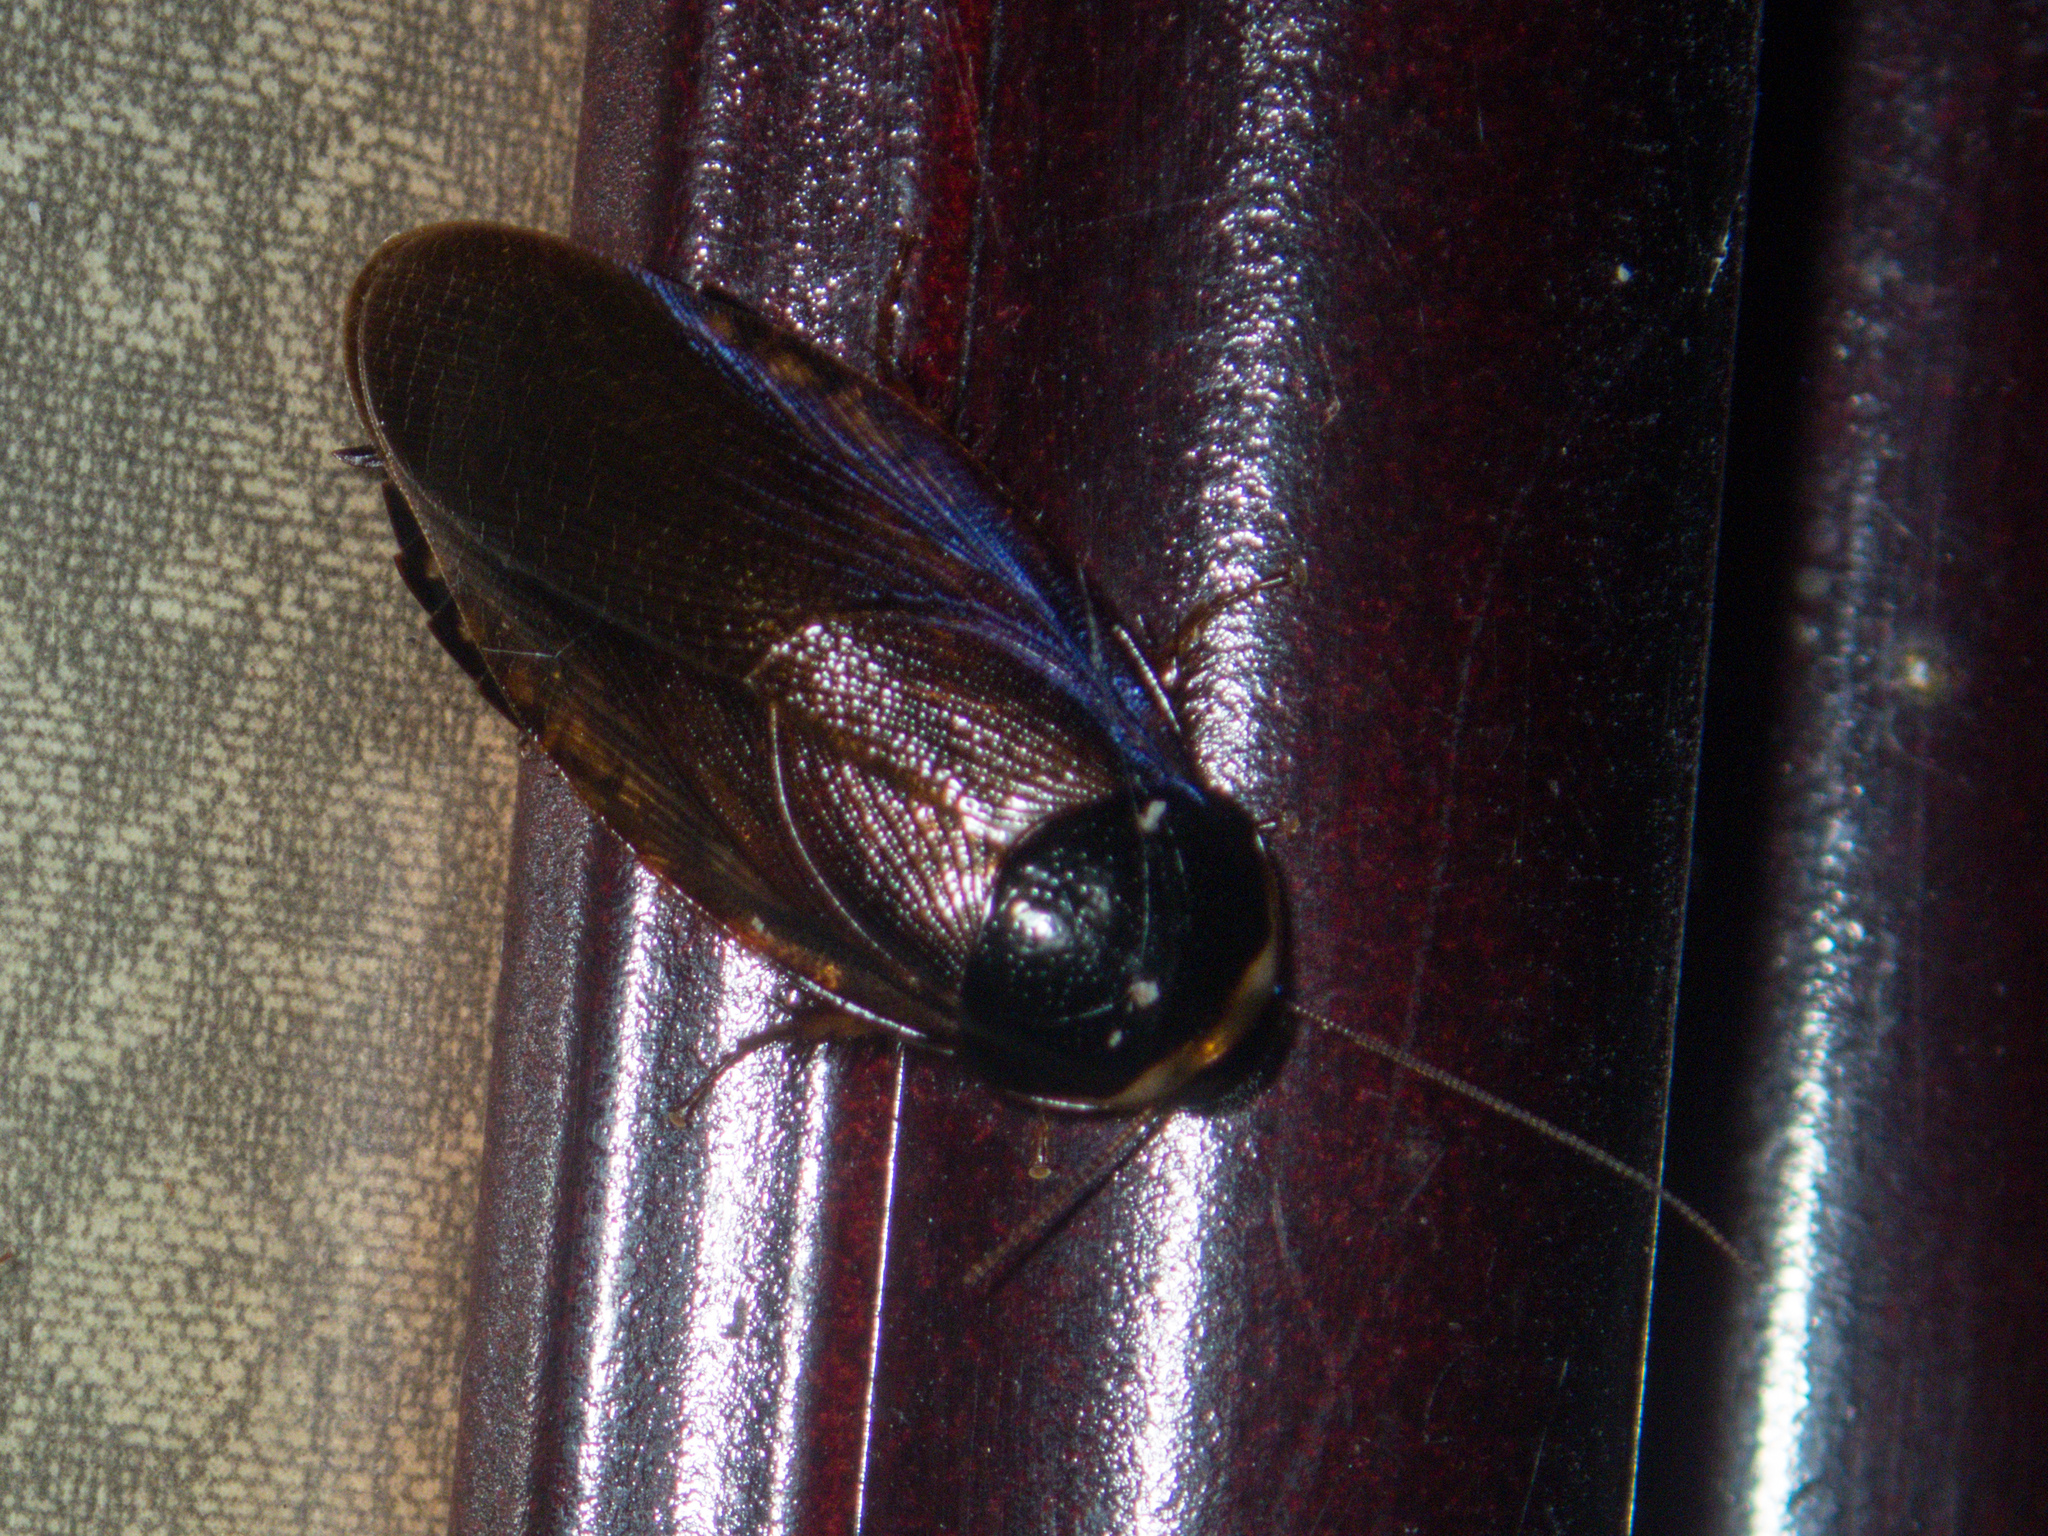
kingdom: Animalia
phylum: Arthropoda
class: Insecta
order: Blattodea
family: Blaberidae
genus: Pycnoscelus
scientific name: Pycnoscelus indicus
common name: Burrowing cockroach
